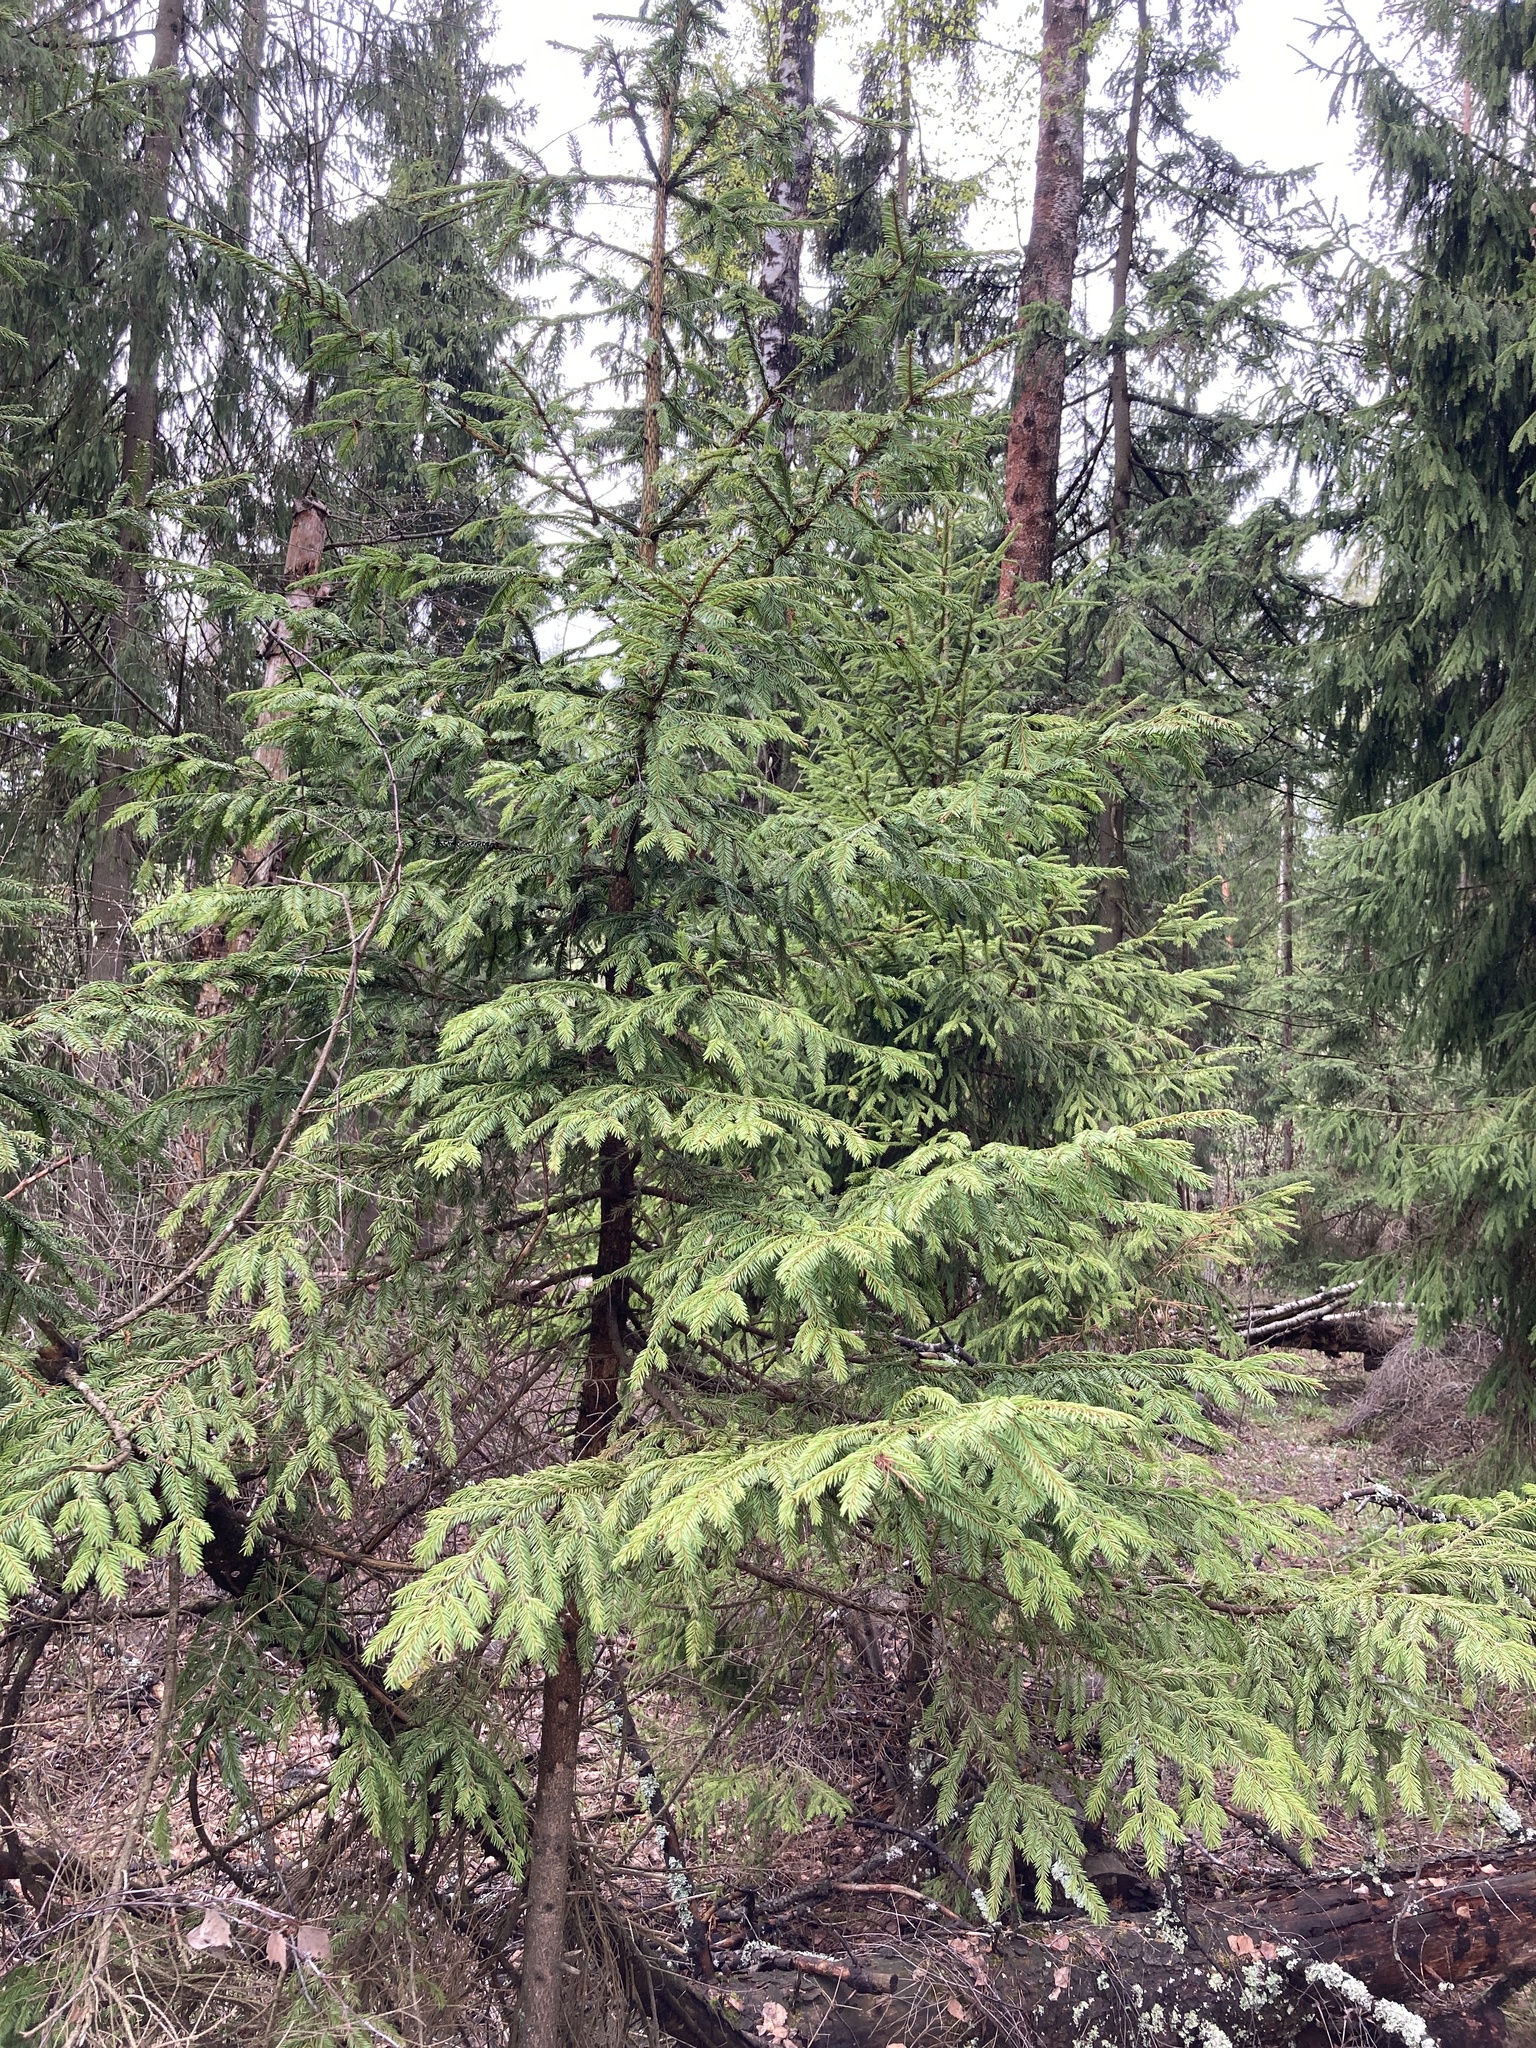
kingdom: Plantae
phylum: Tracheophyta
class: Pinopsida
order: Pinales
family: Pinaceae
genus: Picea
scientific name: Picea abies
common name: Norway spruce
